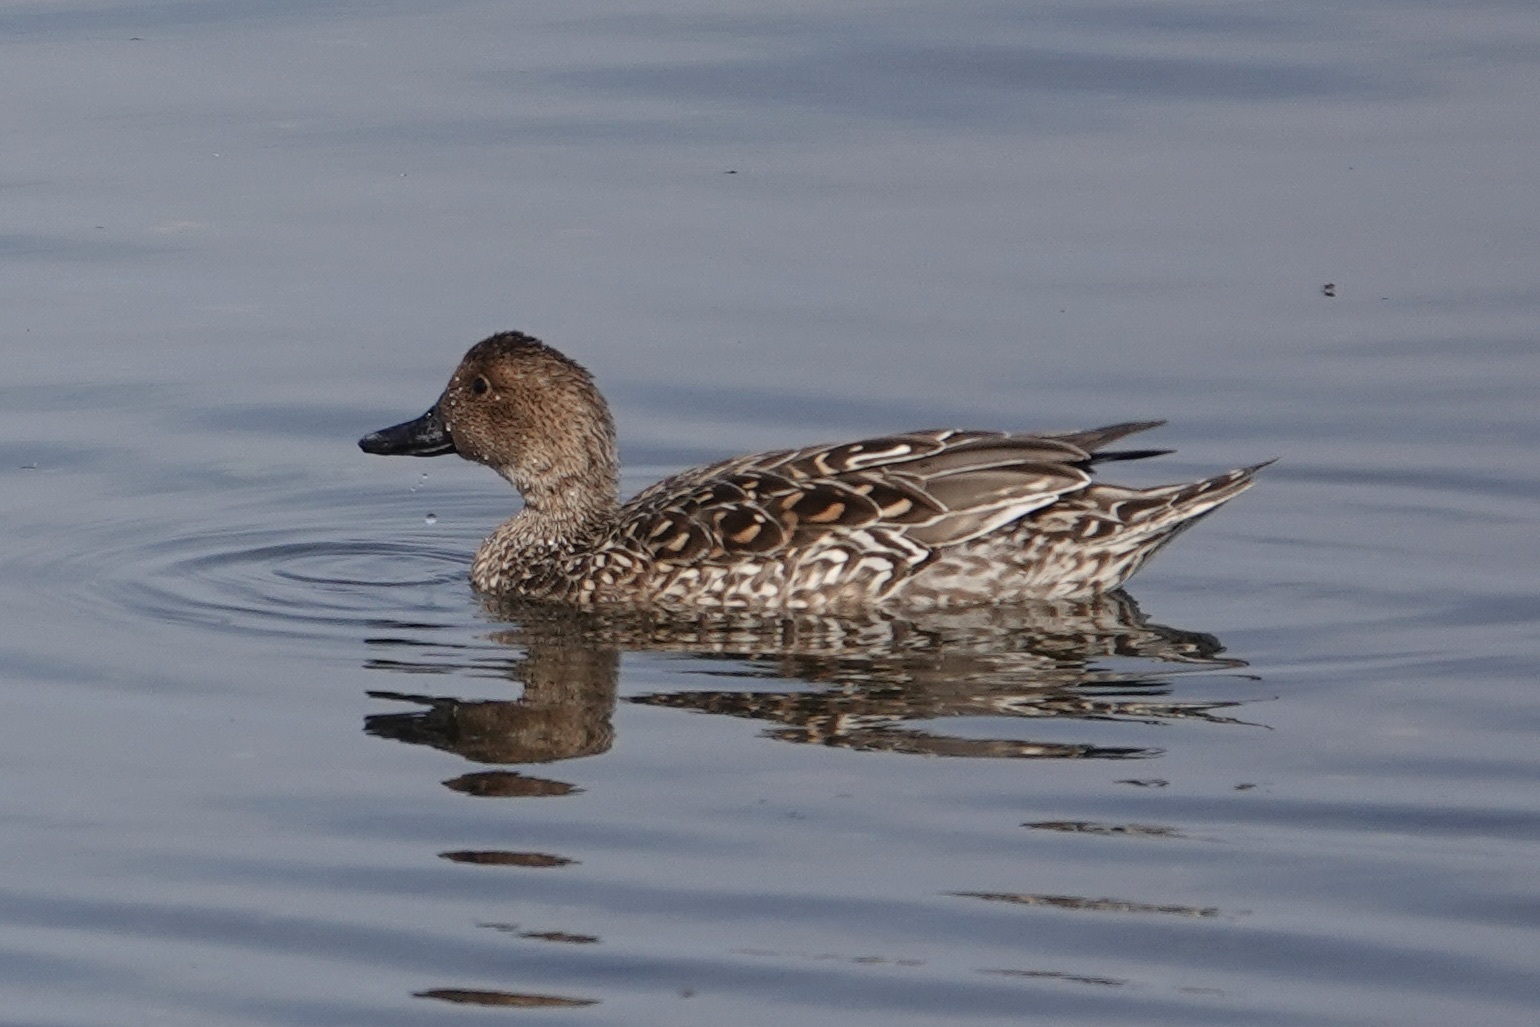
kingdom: Animalia
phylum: Chordata
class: Aves
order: Anseriformes
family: Anatidae
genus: Anas
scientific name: Anas acuta
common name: Northern pintail
